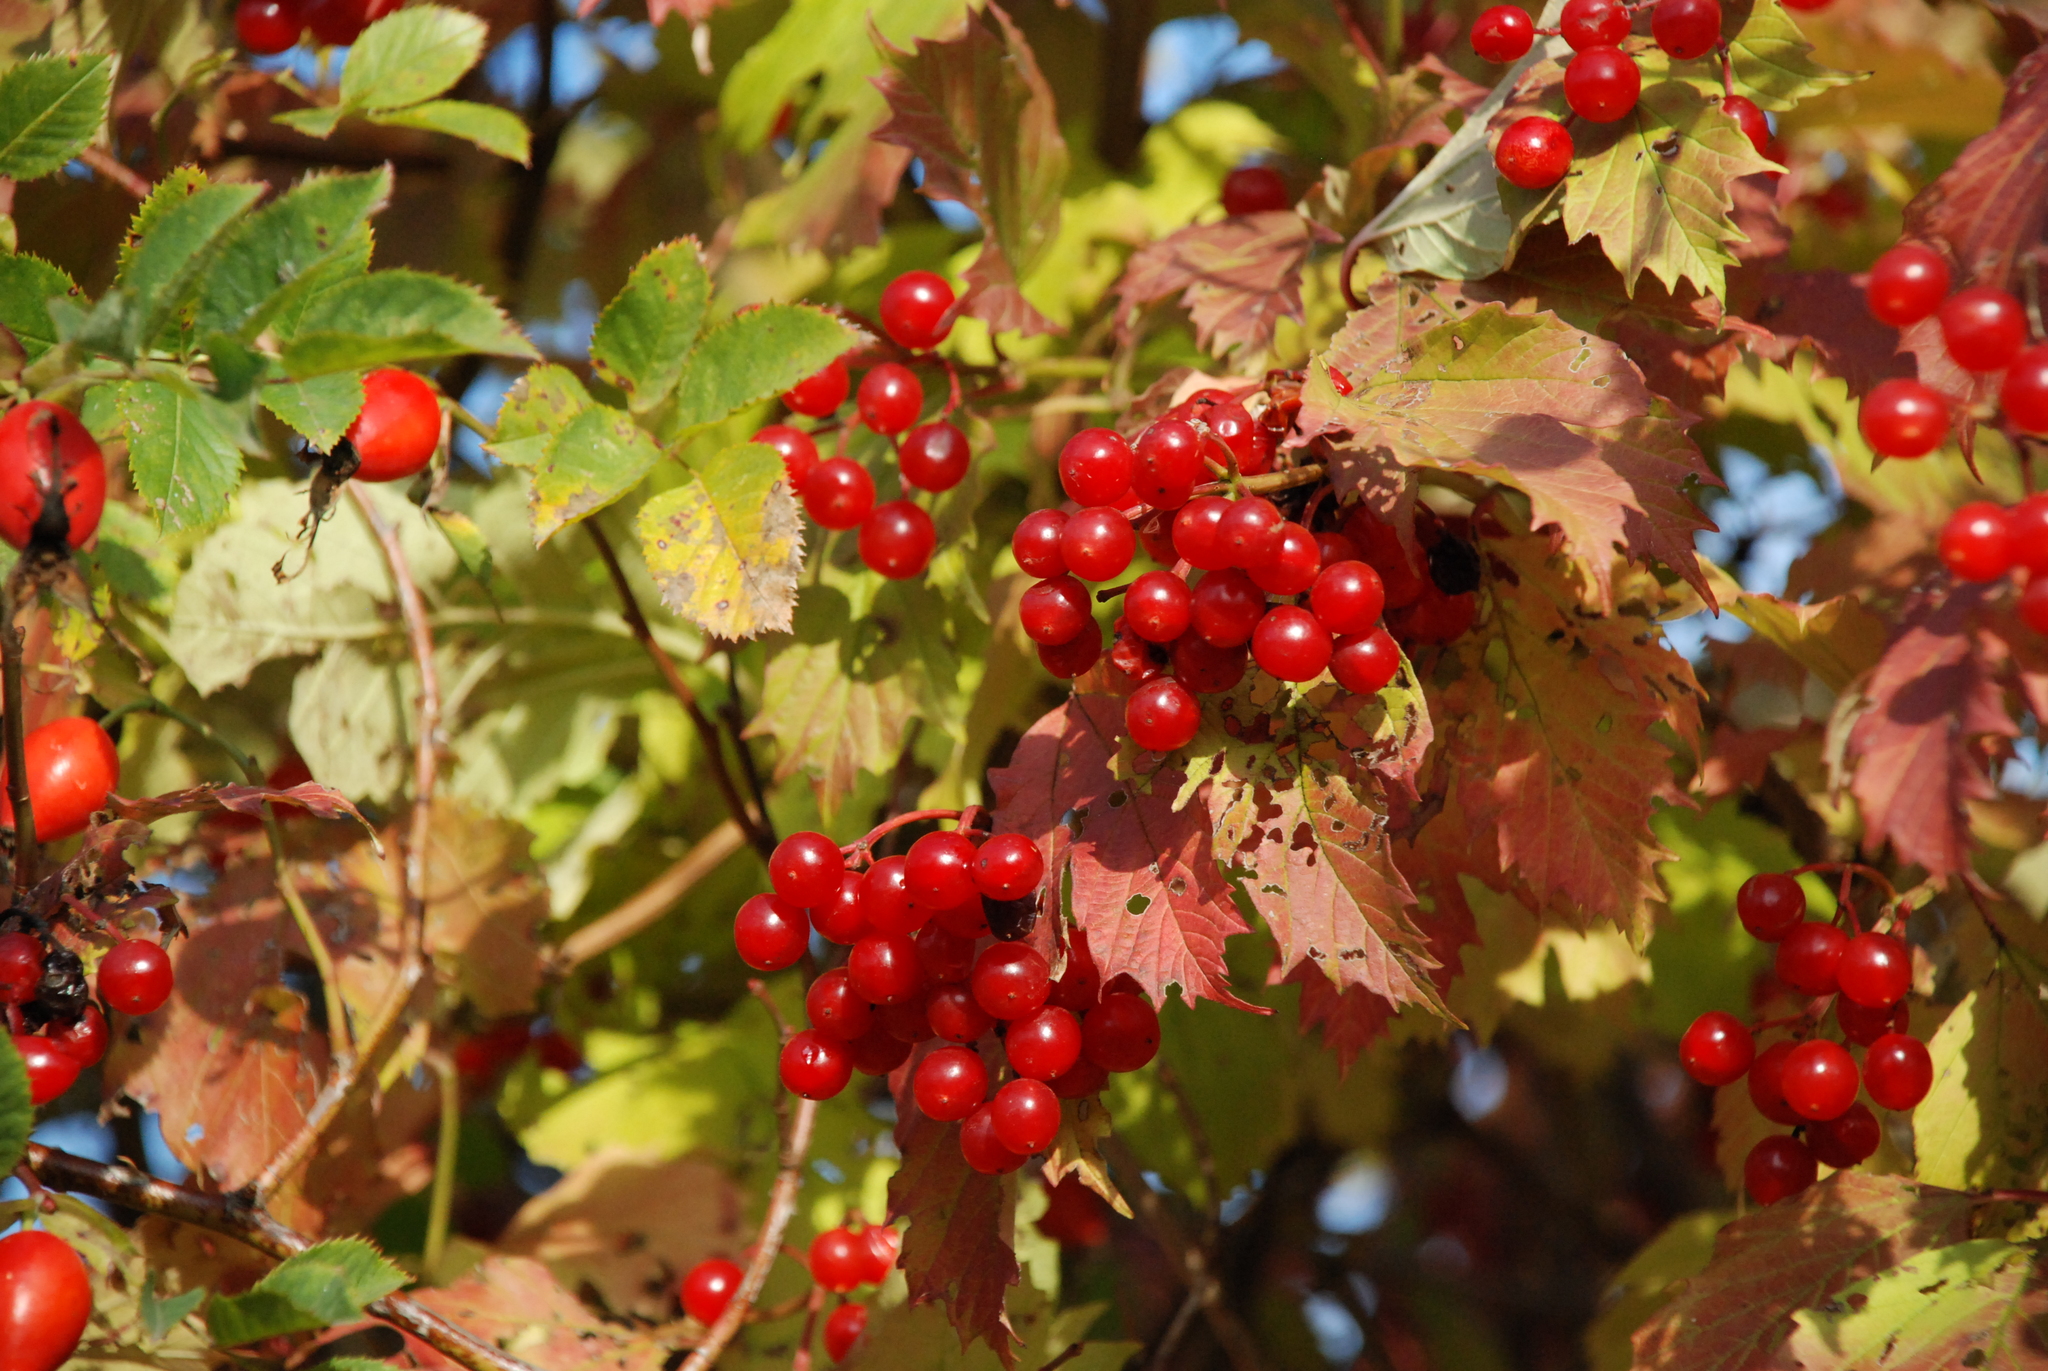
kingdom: Plantae
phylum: Tracheophyta
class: Magnoliopsida
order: Dipsacales
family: Viburnaceae
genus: Viburnum
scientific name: Viburnum opulus
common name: Guelder-rose
